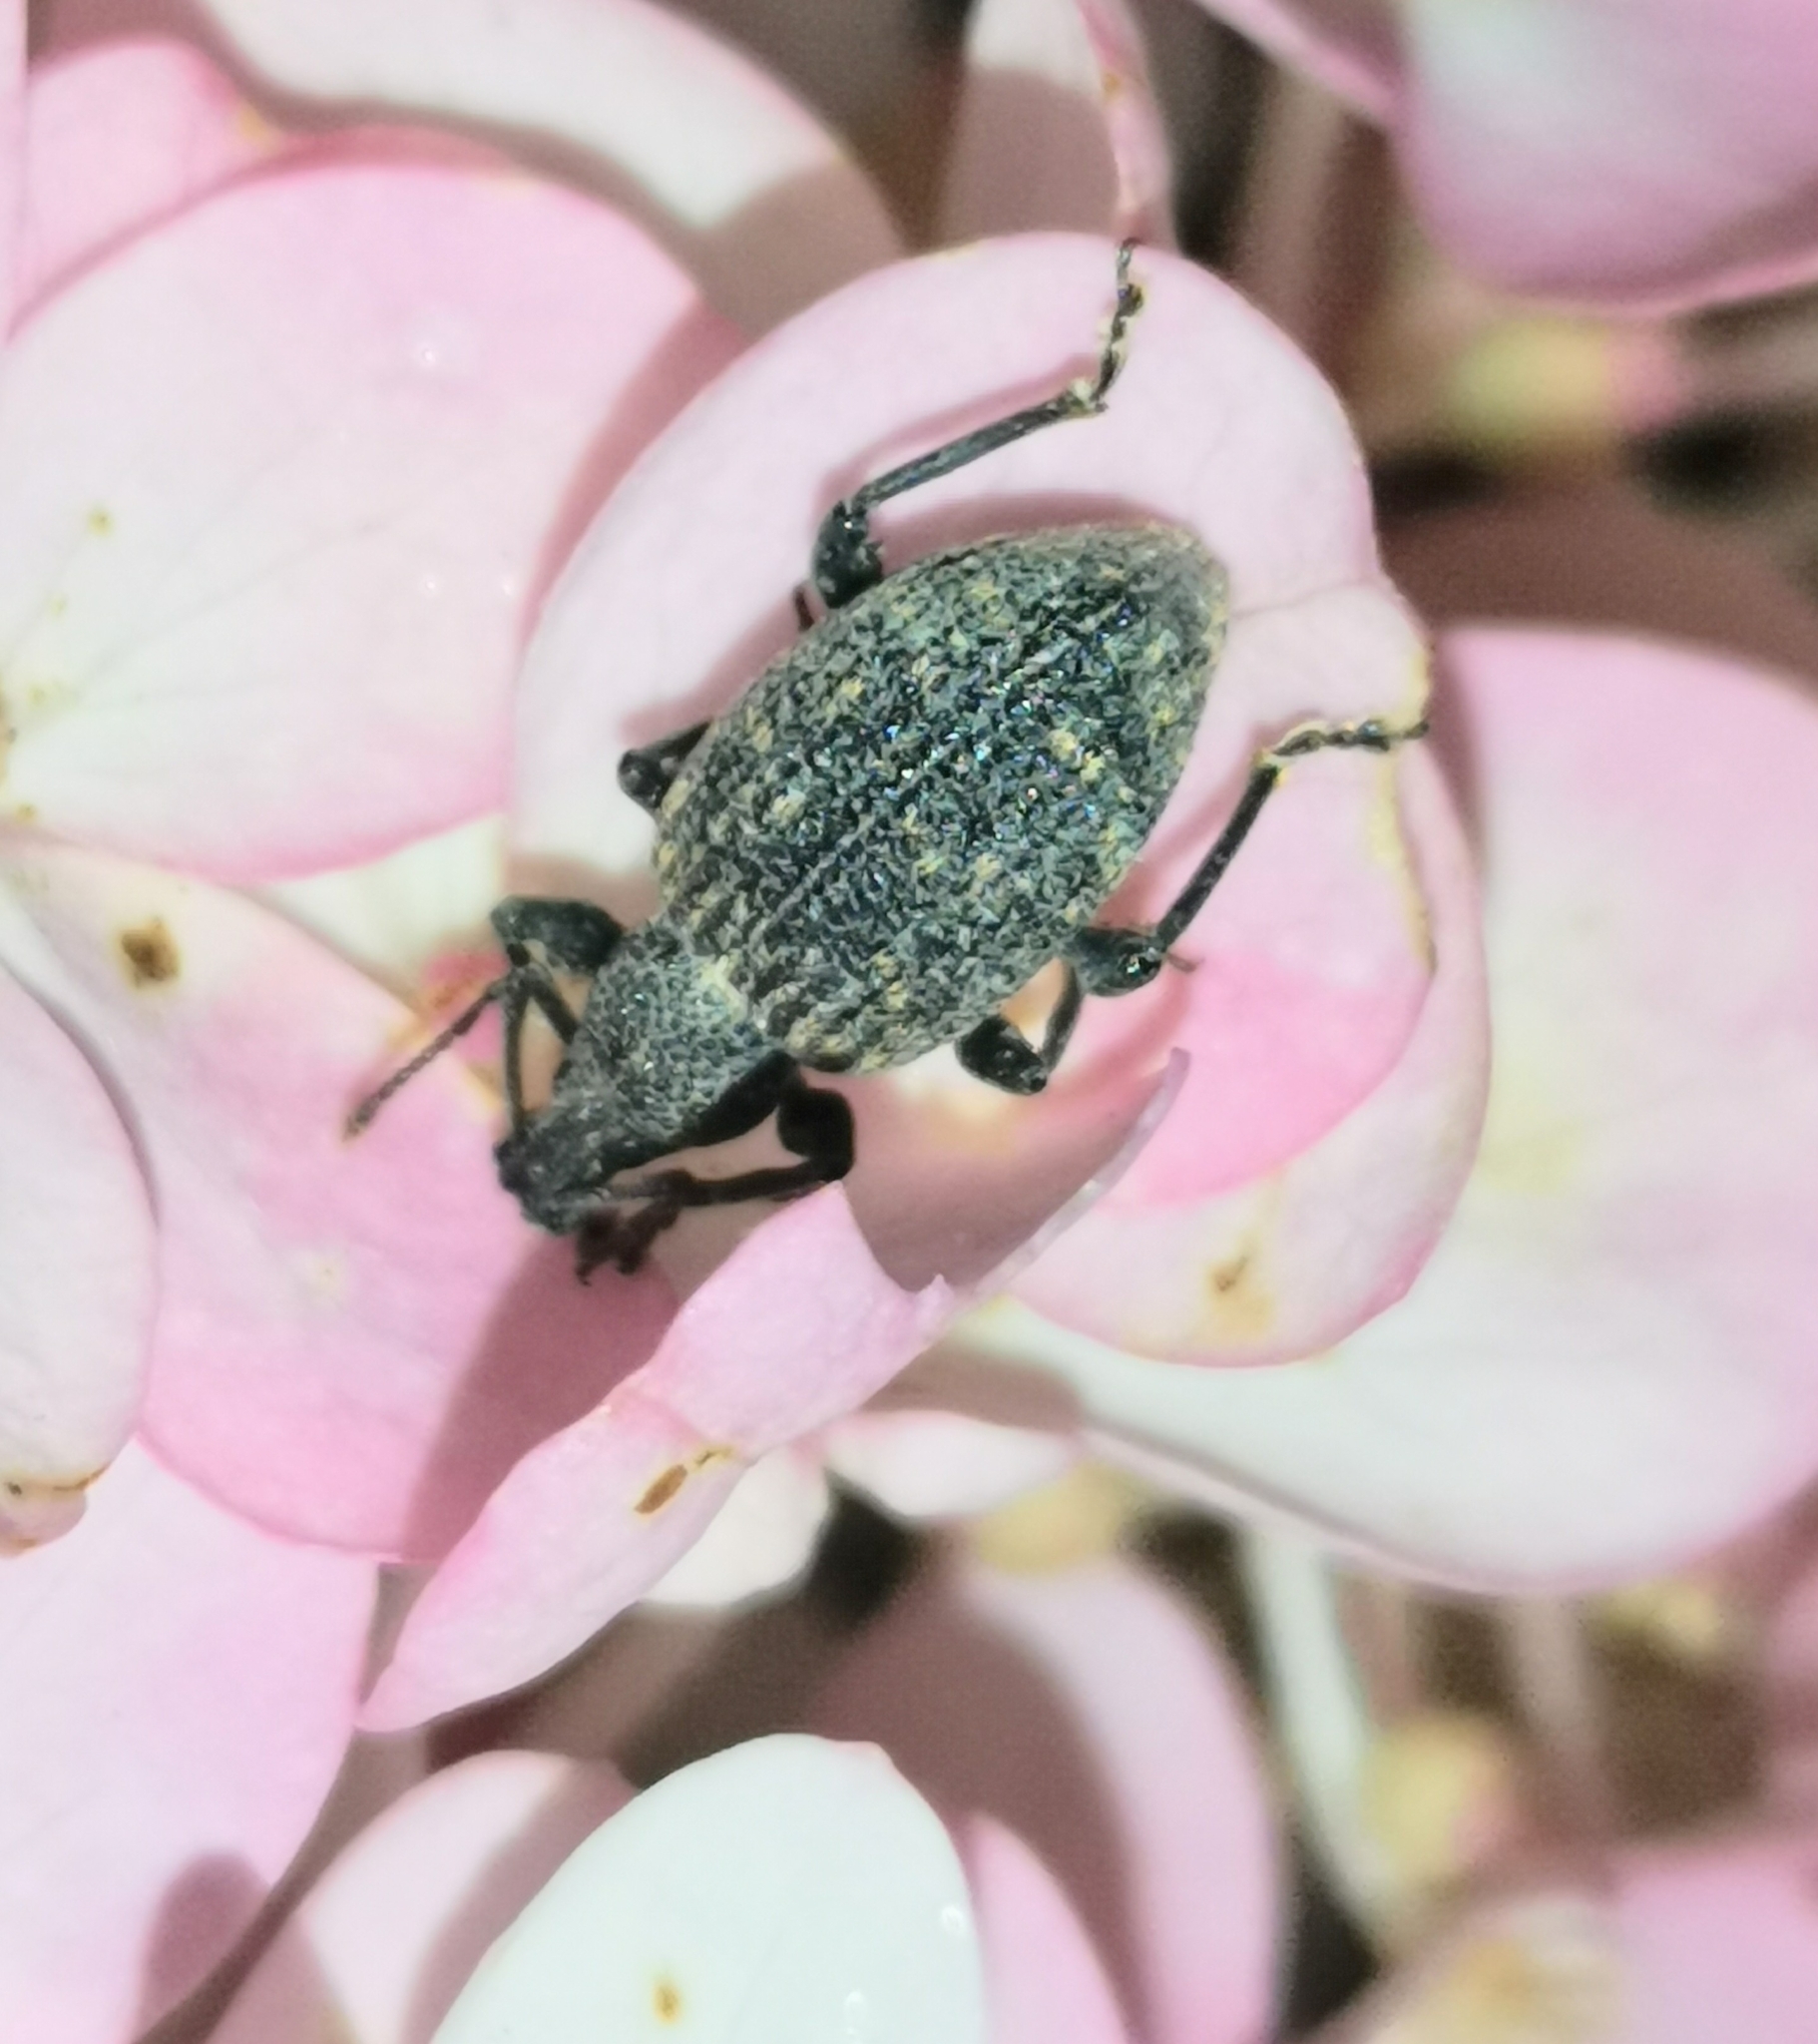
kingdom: Animalia
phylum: Arthropoda
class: Insecta
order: Coleoptera
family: Curculionidae
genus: Otiorhynchus
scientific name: Otiorhynchus sulcatus
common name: Black vine weevil
